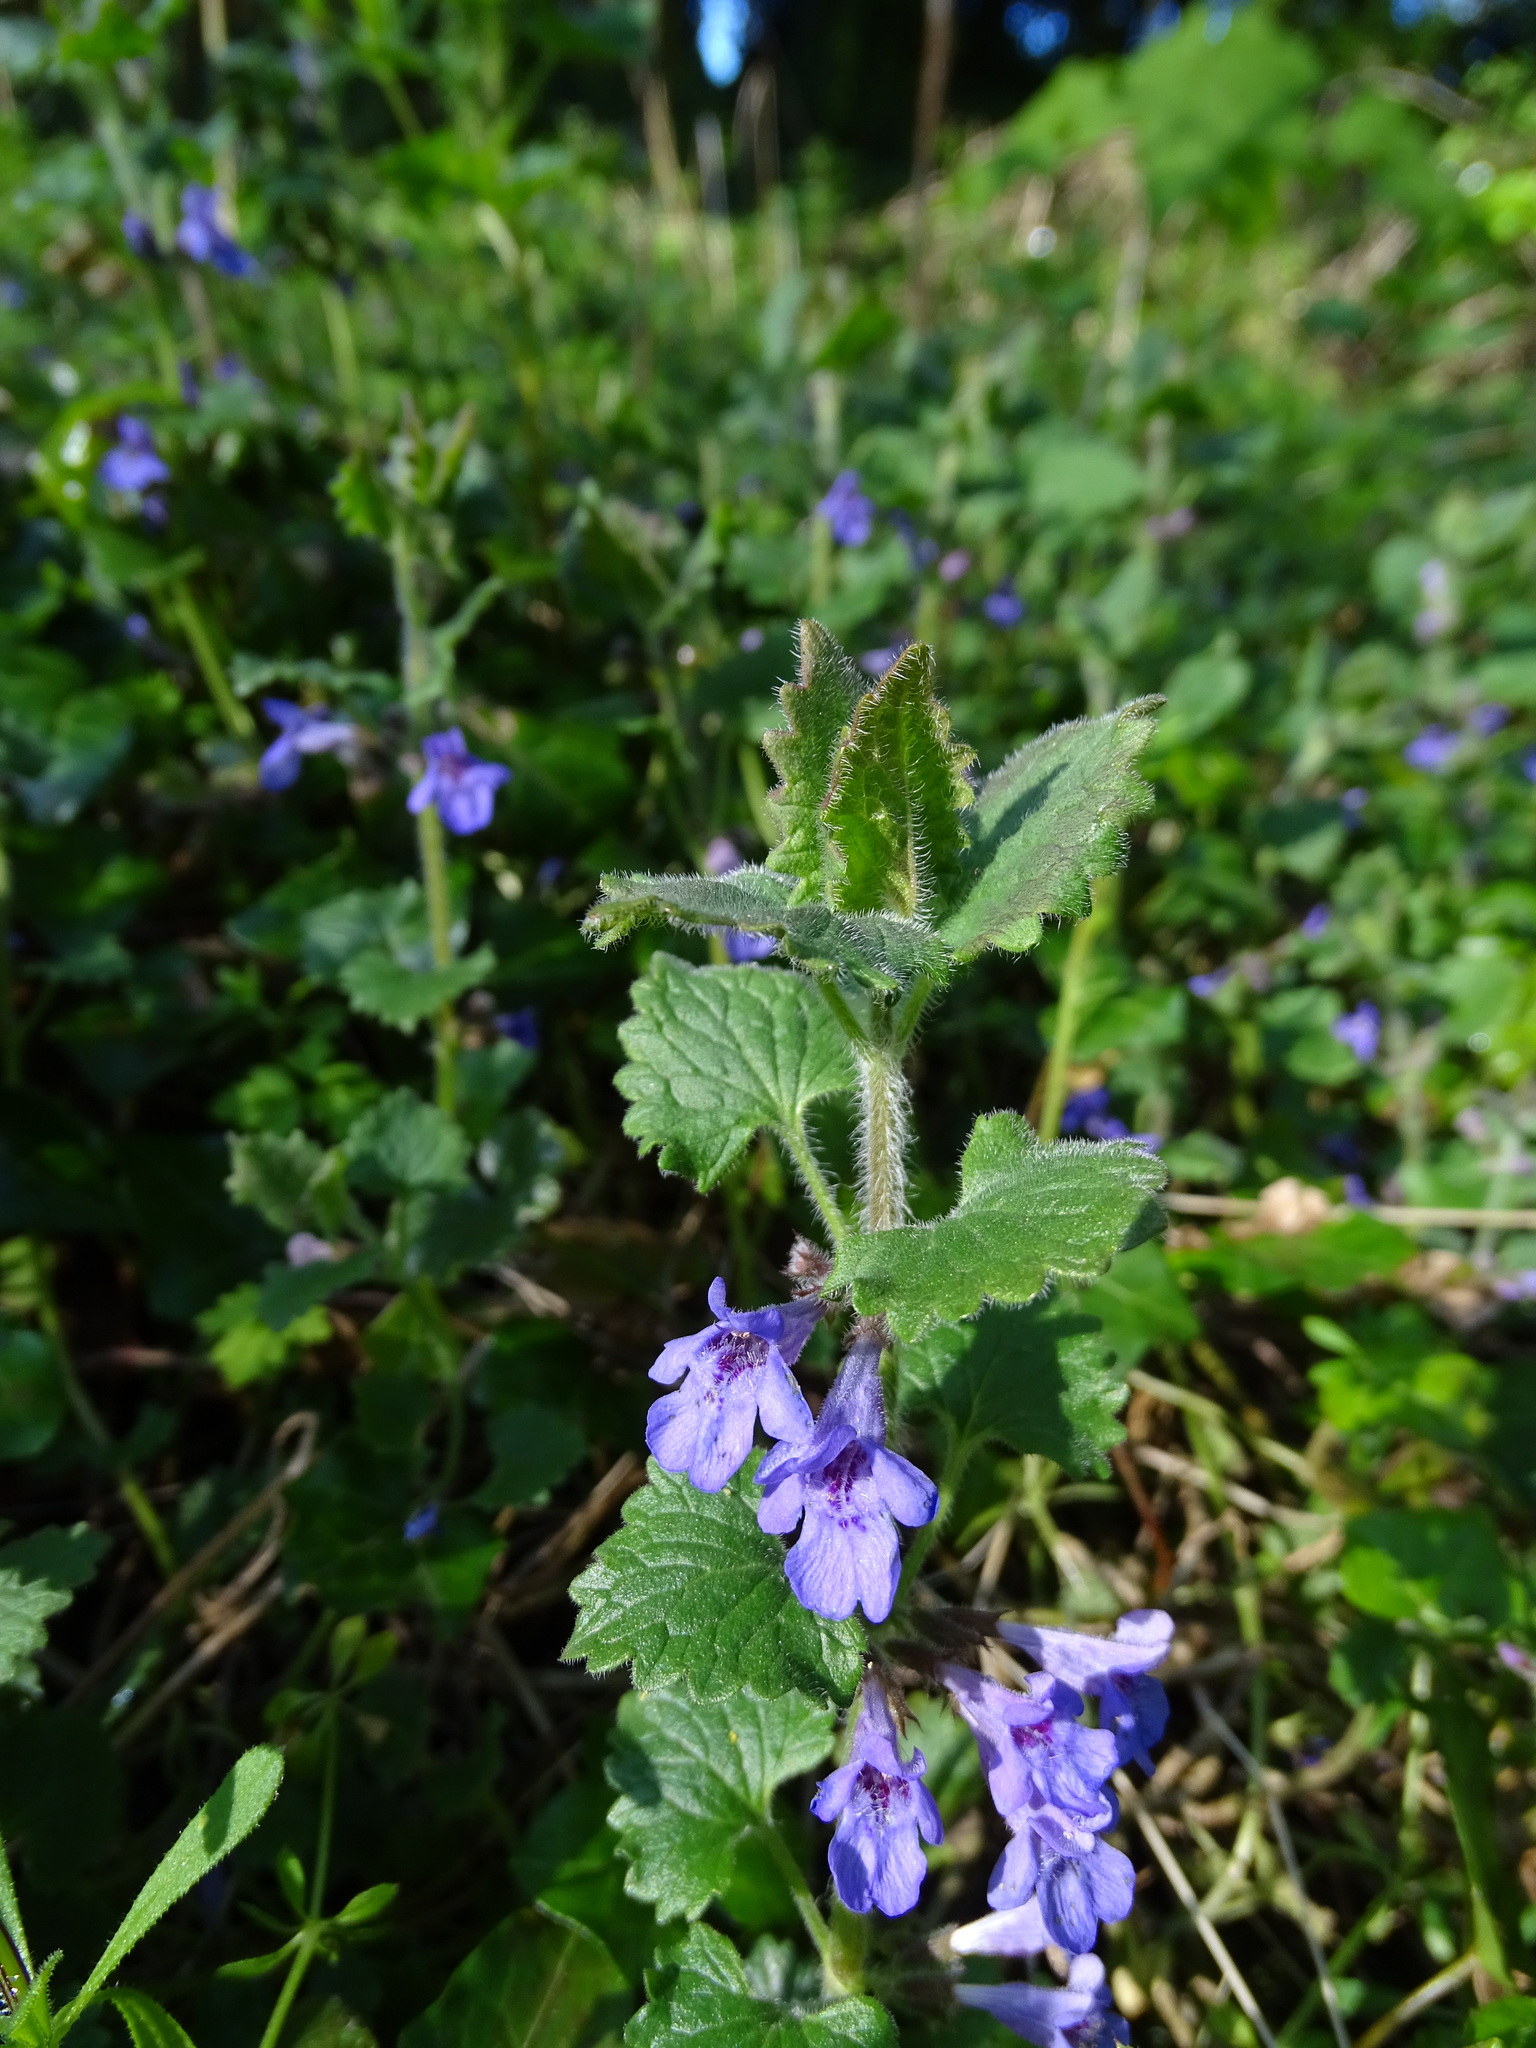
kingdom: Plantae
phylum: Tracheophyta
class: Magnoliopsida
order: Lamiales
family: Lamiaceae
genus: Glechoma
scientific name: Glechoma hederacea
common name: Ground ivy
